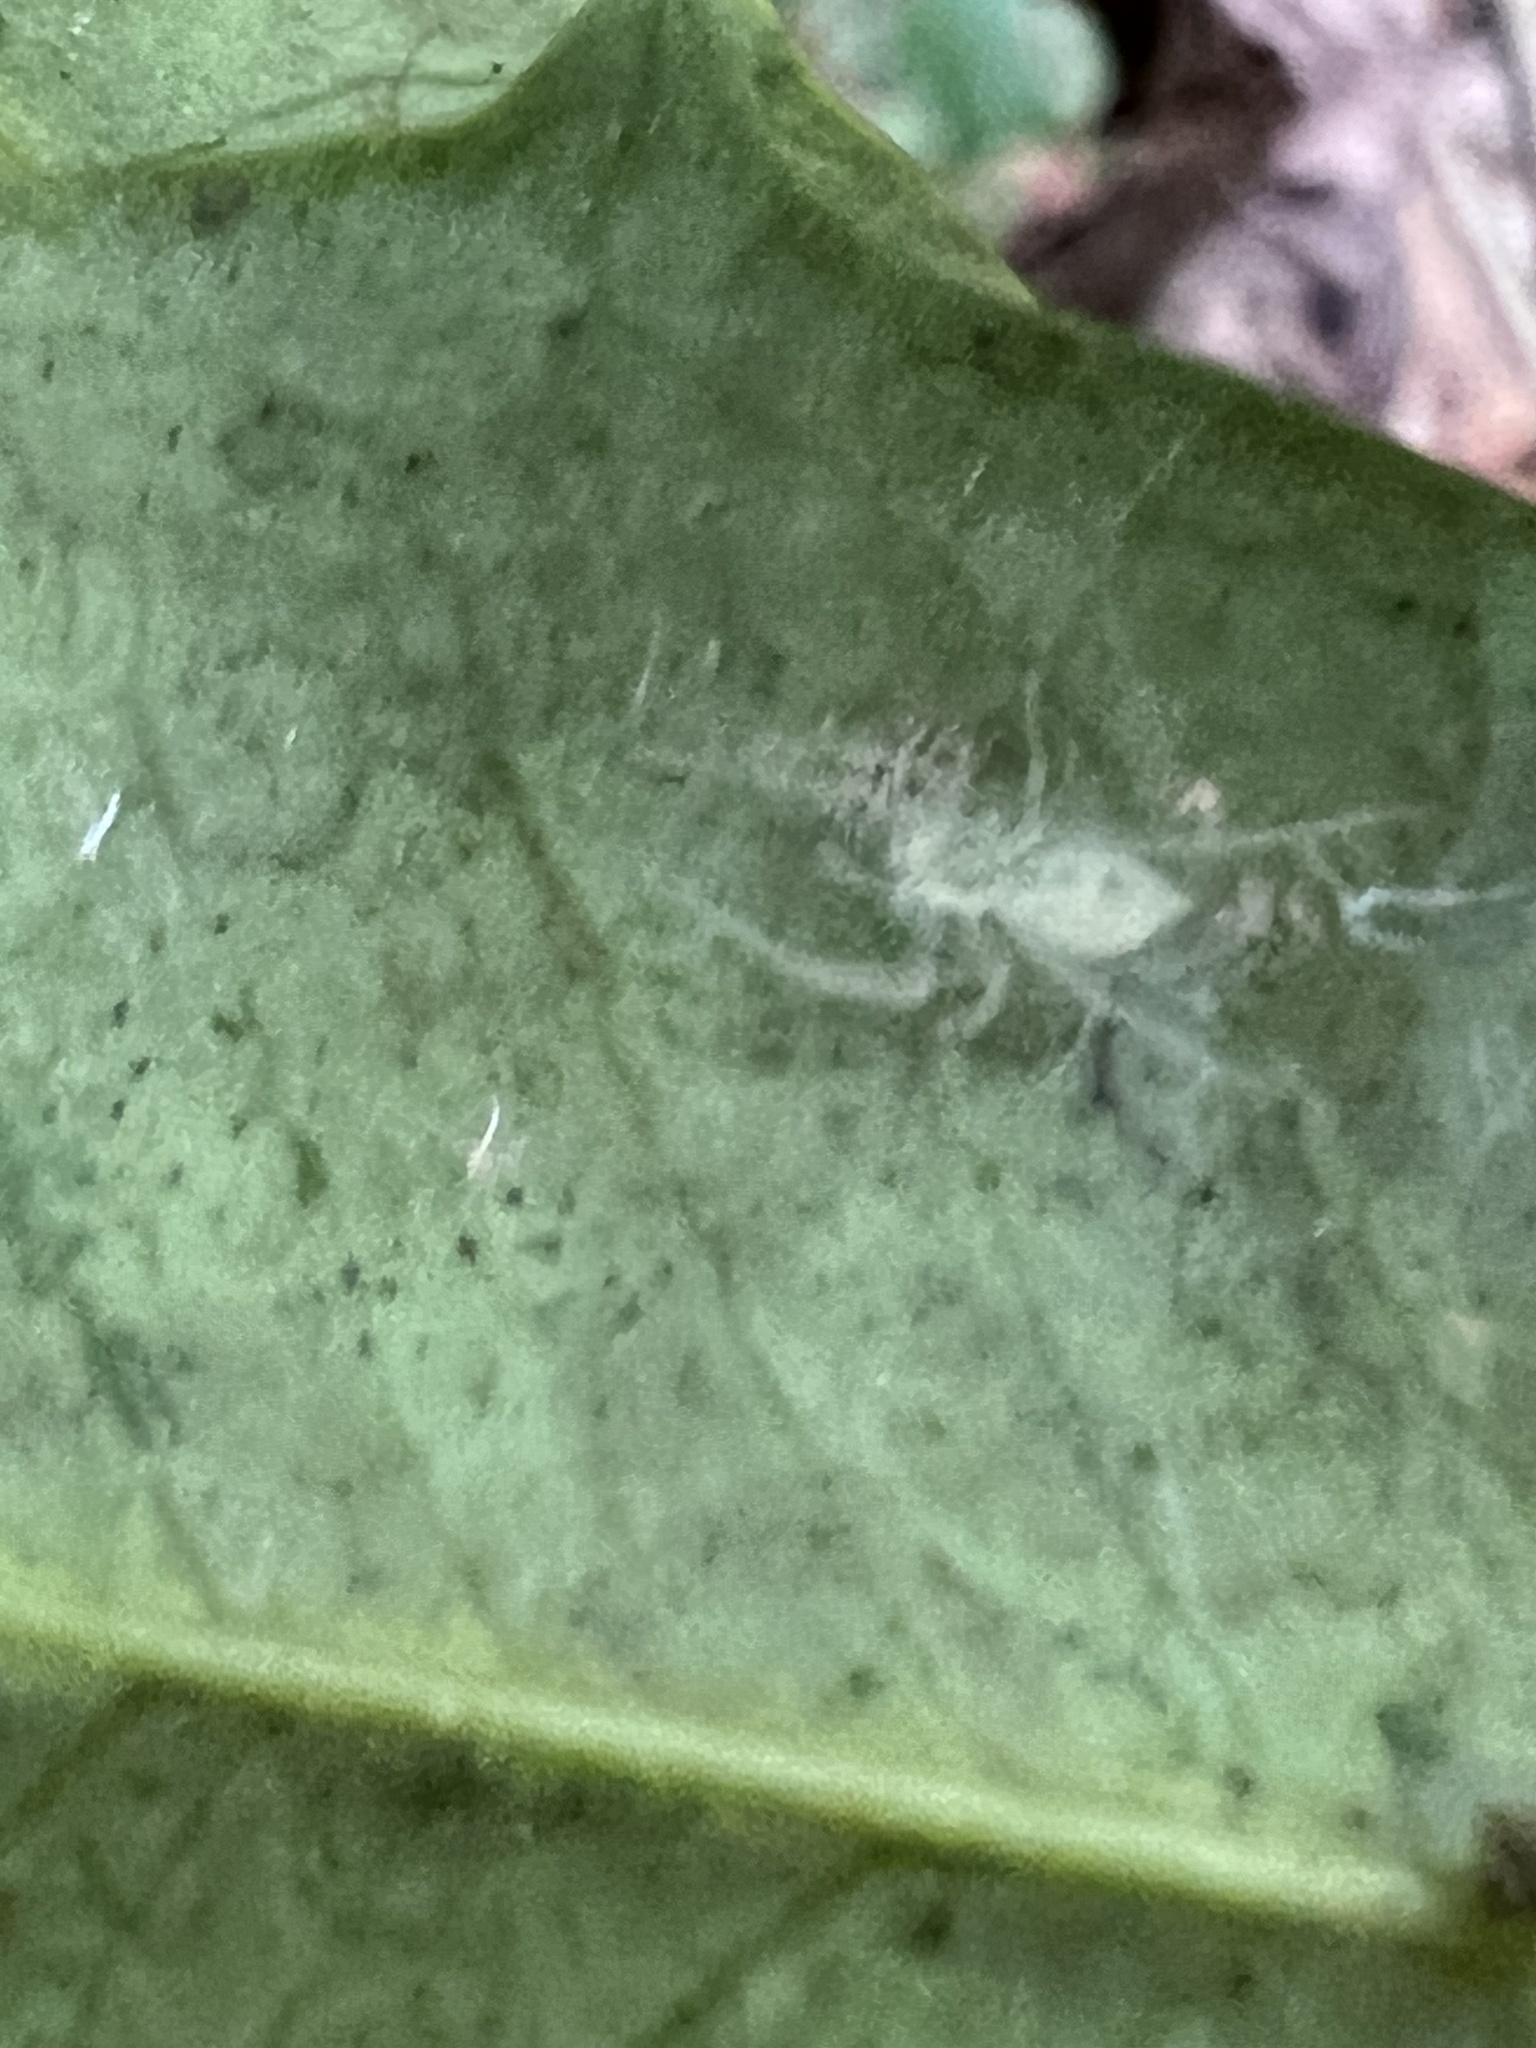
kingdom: Animalia
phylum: Arthropoda
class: Arachnida
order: Araneae
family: Anyphaenidae
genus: Wulfila
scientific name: Wulfila albens
